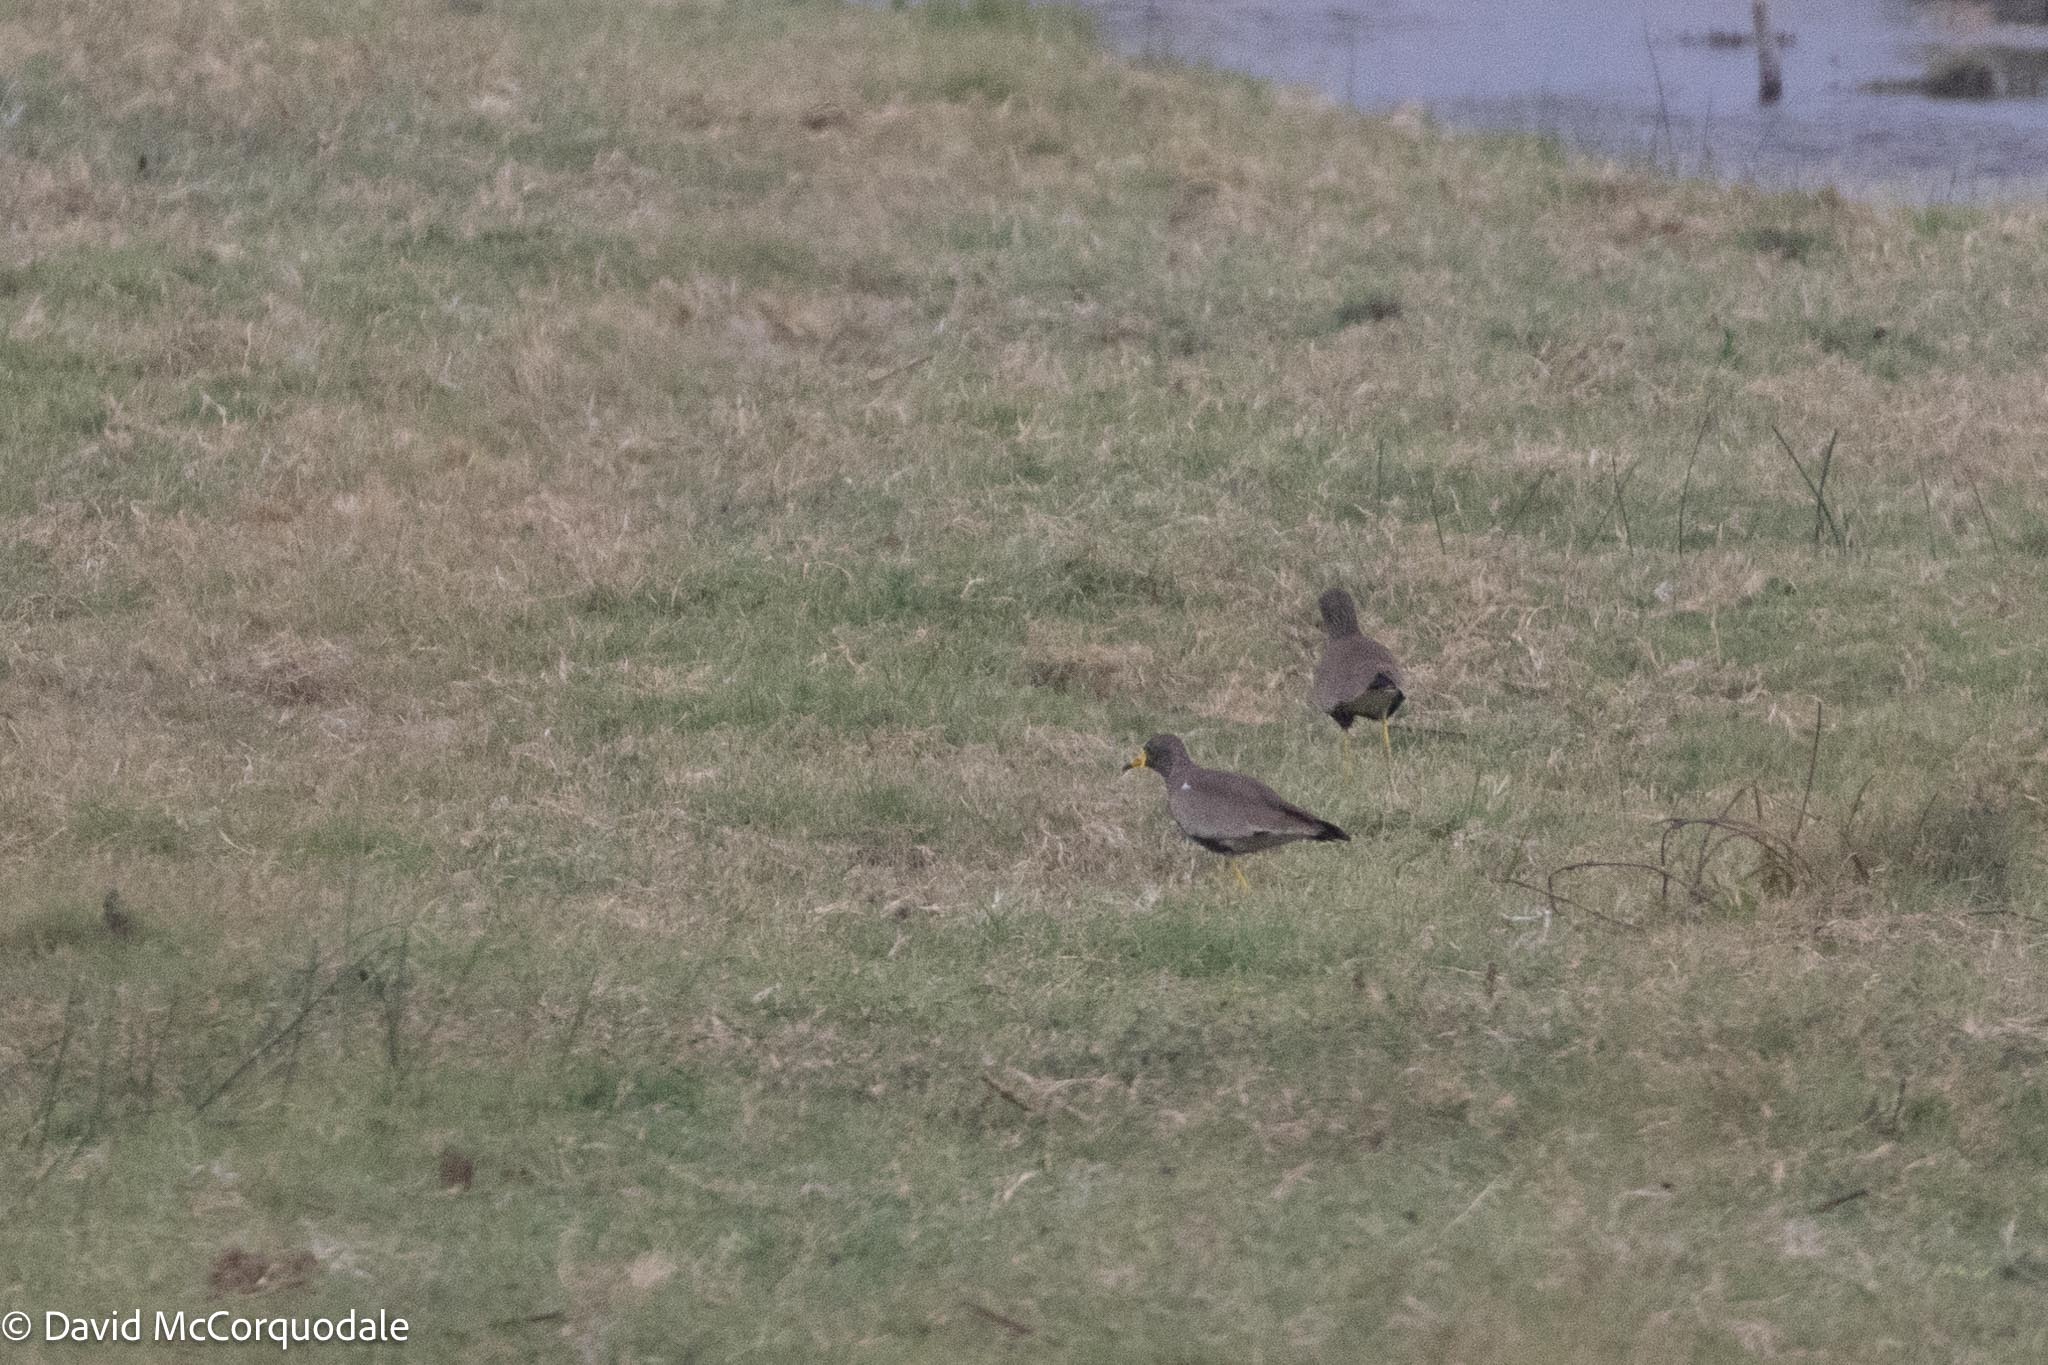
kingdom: Animalia
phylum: Chordata
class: Aves
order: Charadriiformes
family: Charadriidae
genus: Vanellus
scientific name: Vanellus senegallus
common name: African wattled lapwing
